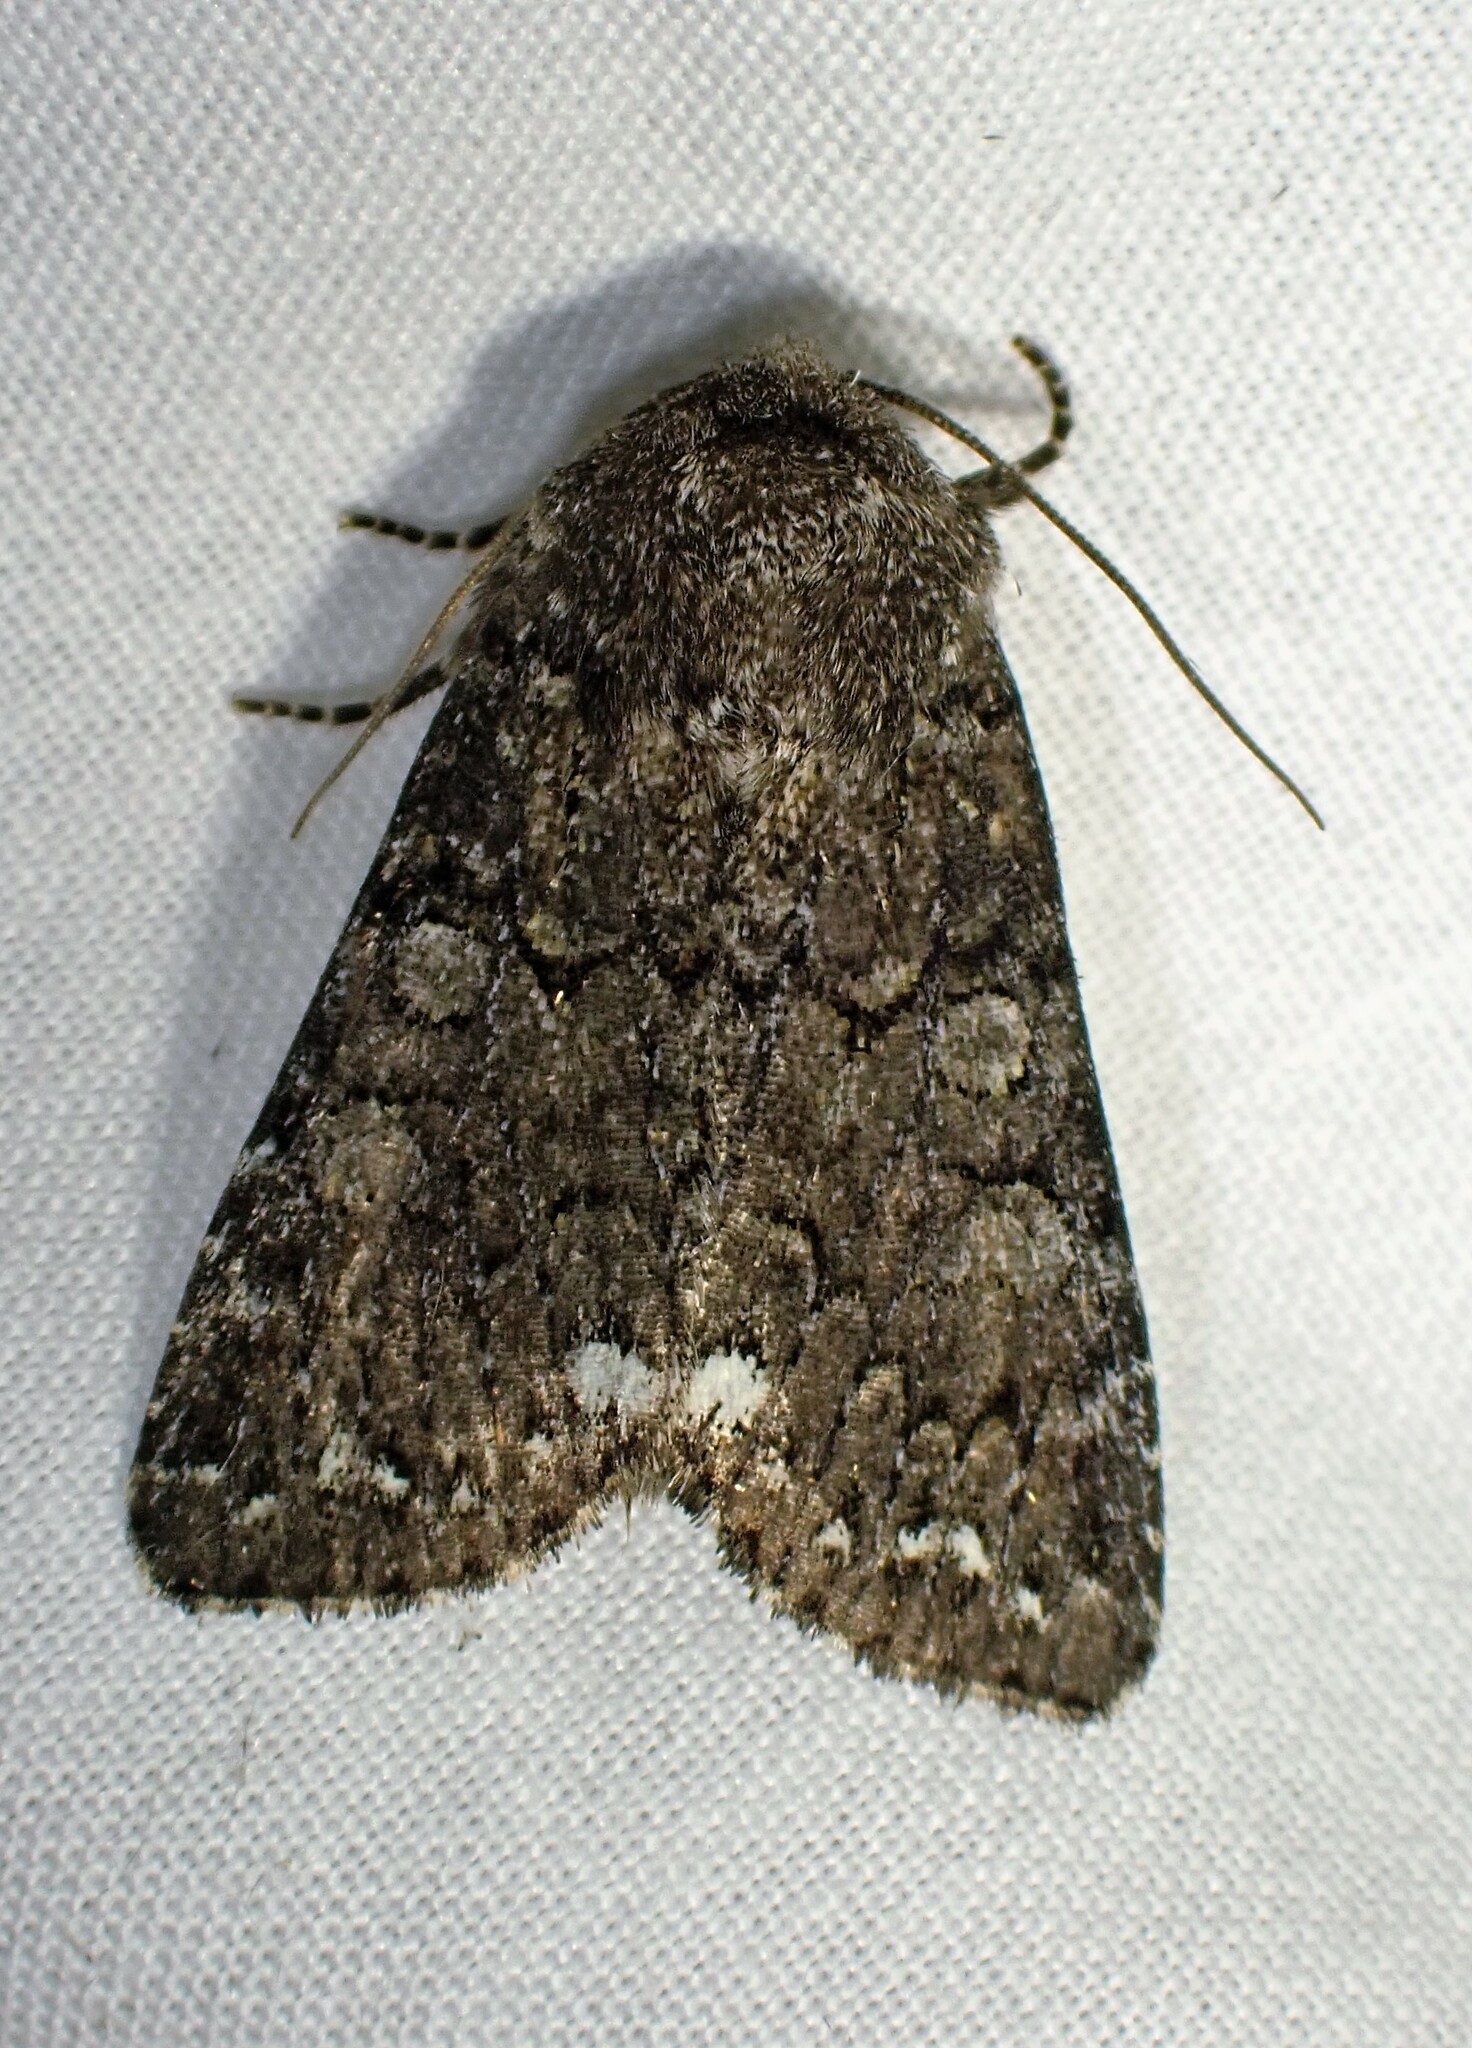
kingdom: Animalia
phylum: Arthropoda
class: Insecta
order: Lepidoptera
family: Noctuidae
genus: Melanchra
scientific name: Melanchra pulverulenta
